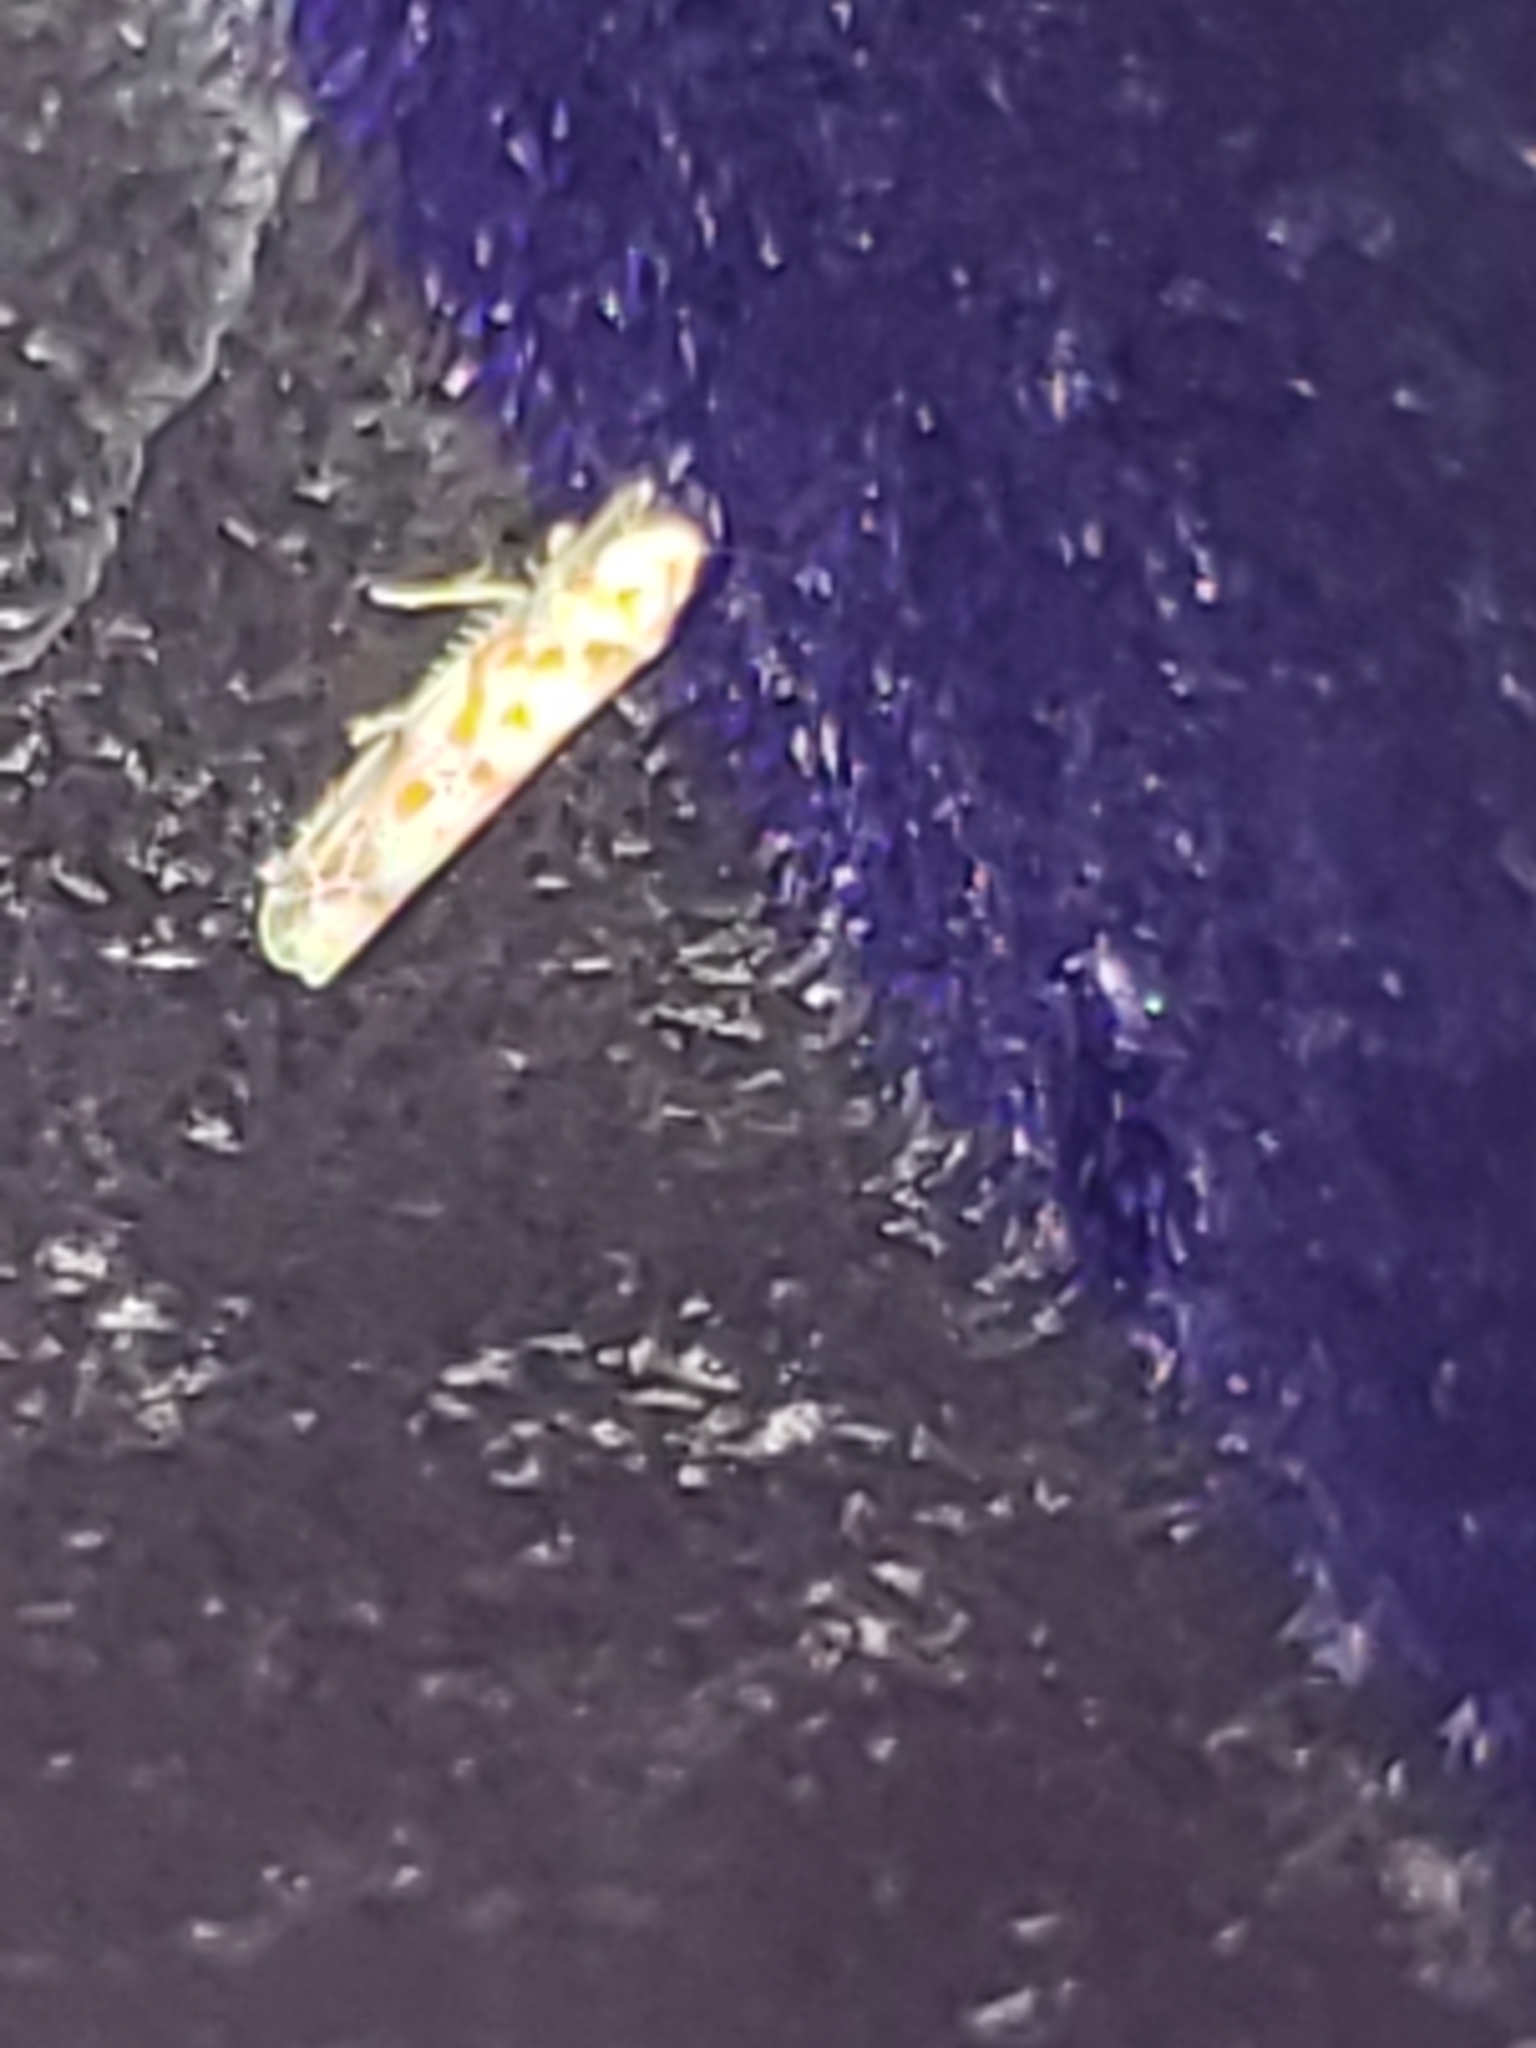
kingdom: Animalia
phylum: Arthropoda
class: Insecta
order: Hemiptera
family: Cicadellidae
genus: Dikrella
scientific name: Dikrella maculata
